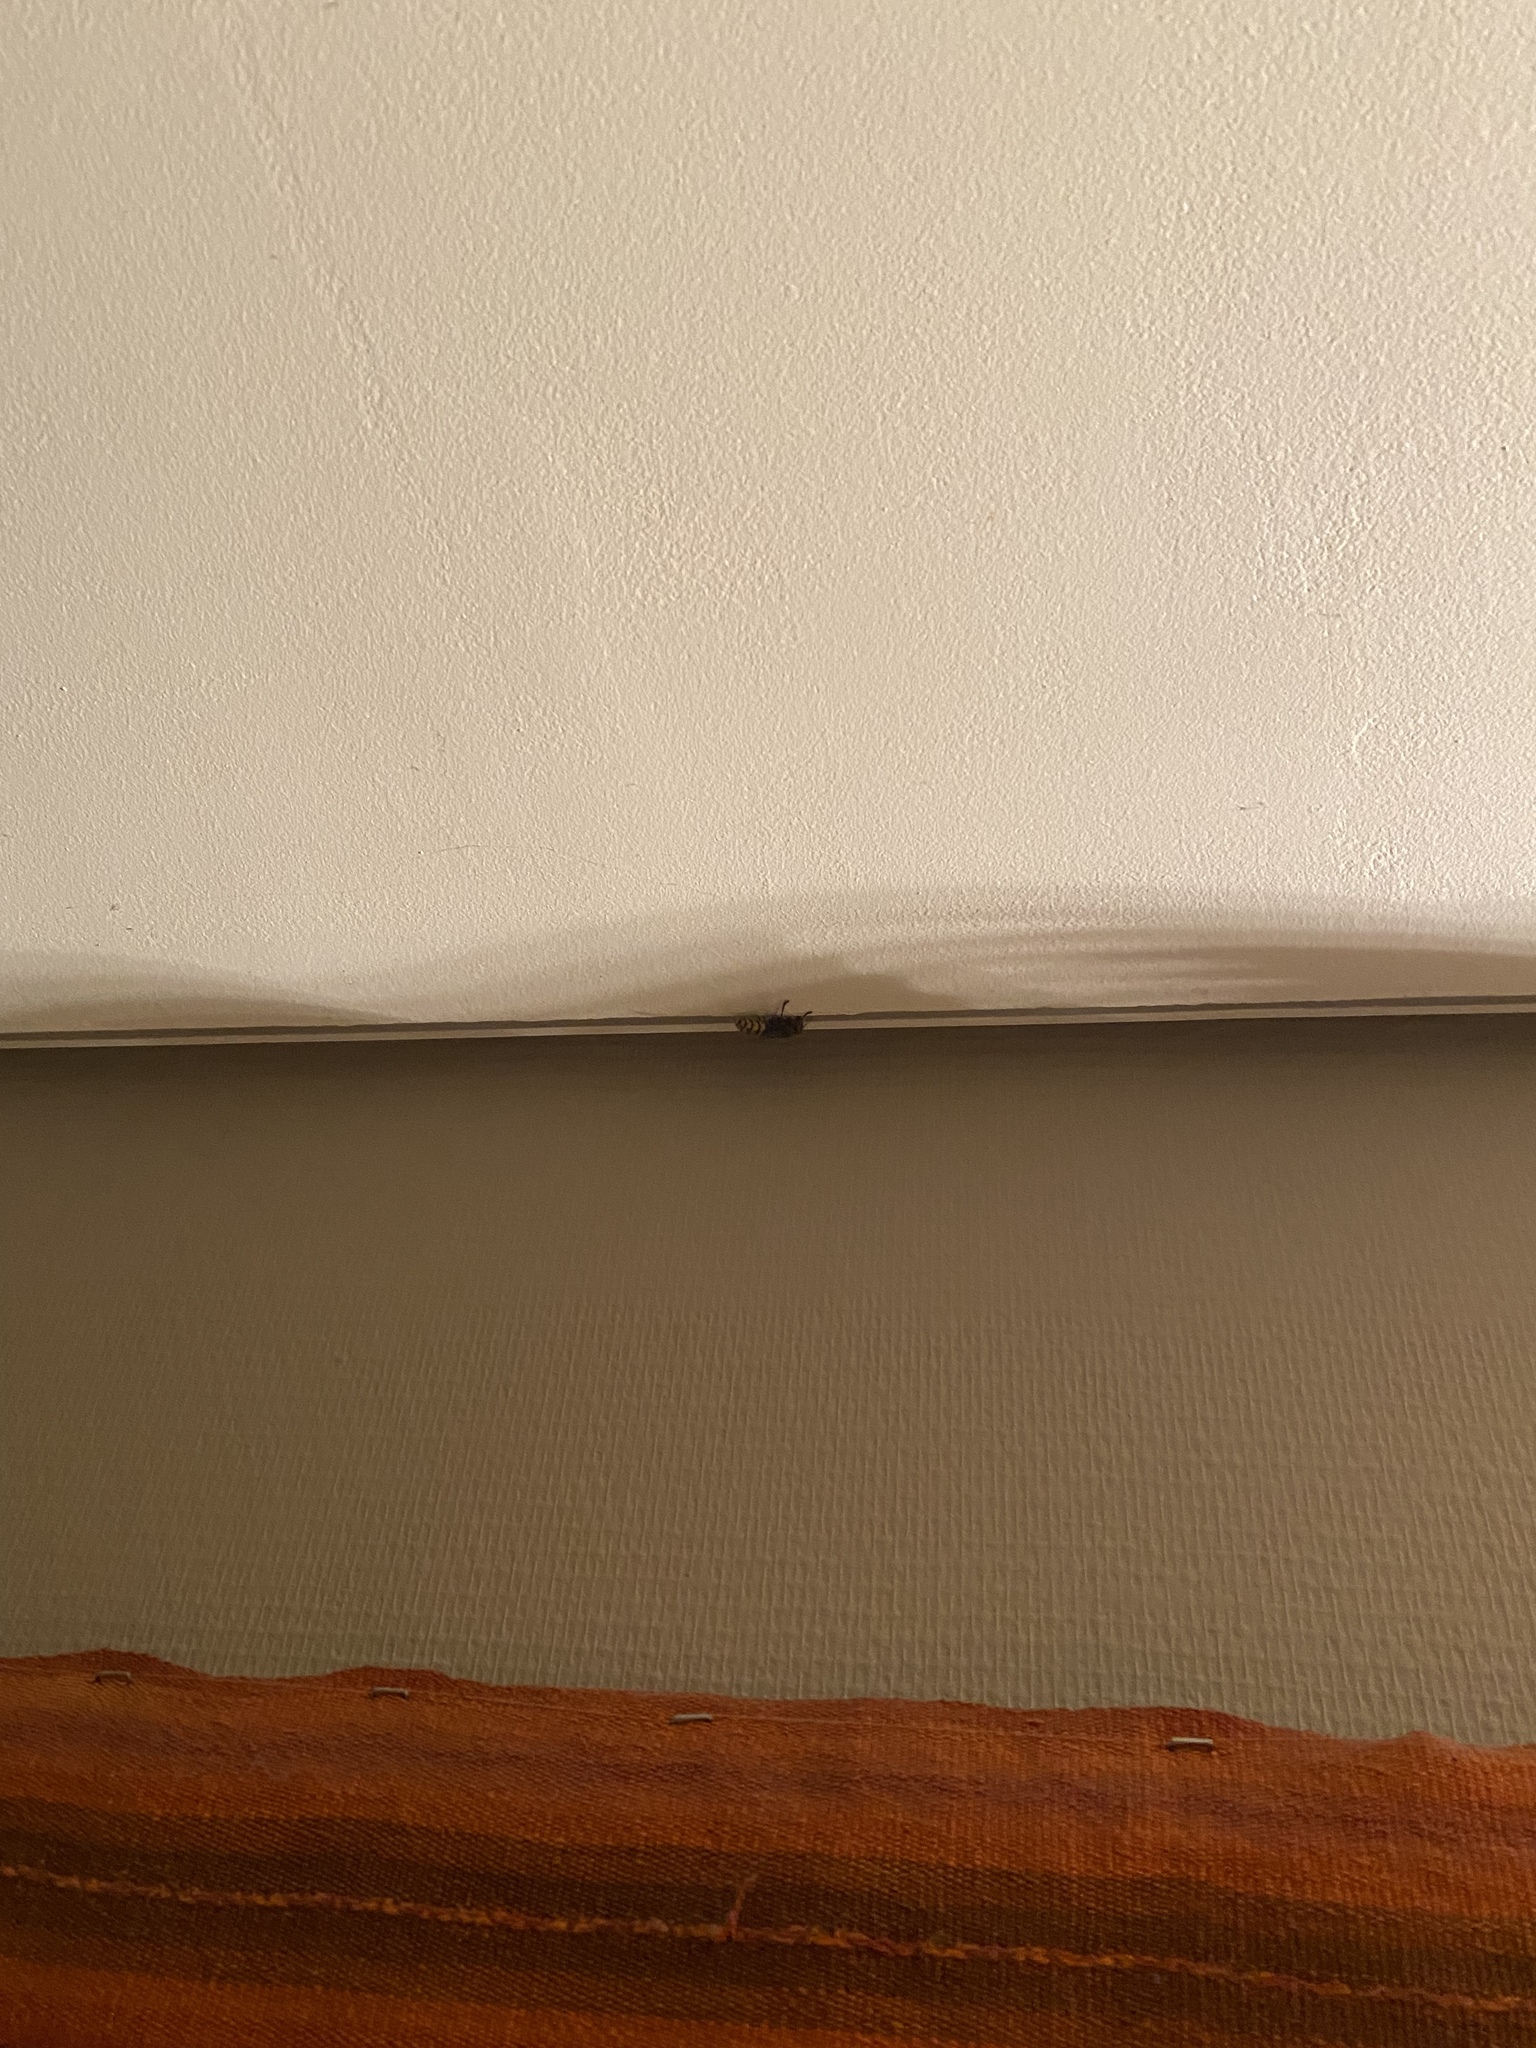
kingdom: Animalia
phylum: Arthropoda
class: Insecta
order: Hymenoptera
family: Vespidae
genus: Vespa
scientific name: Vespa crabro
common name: Hornet
